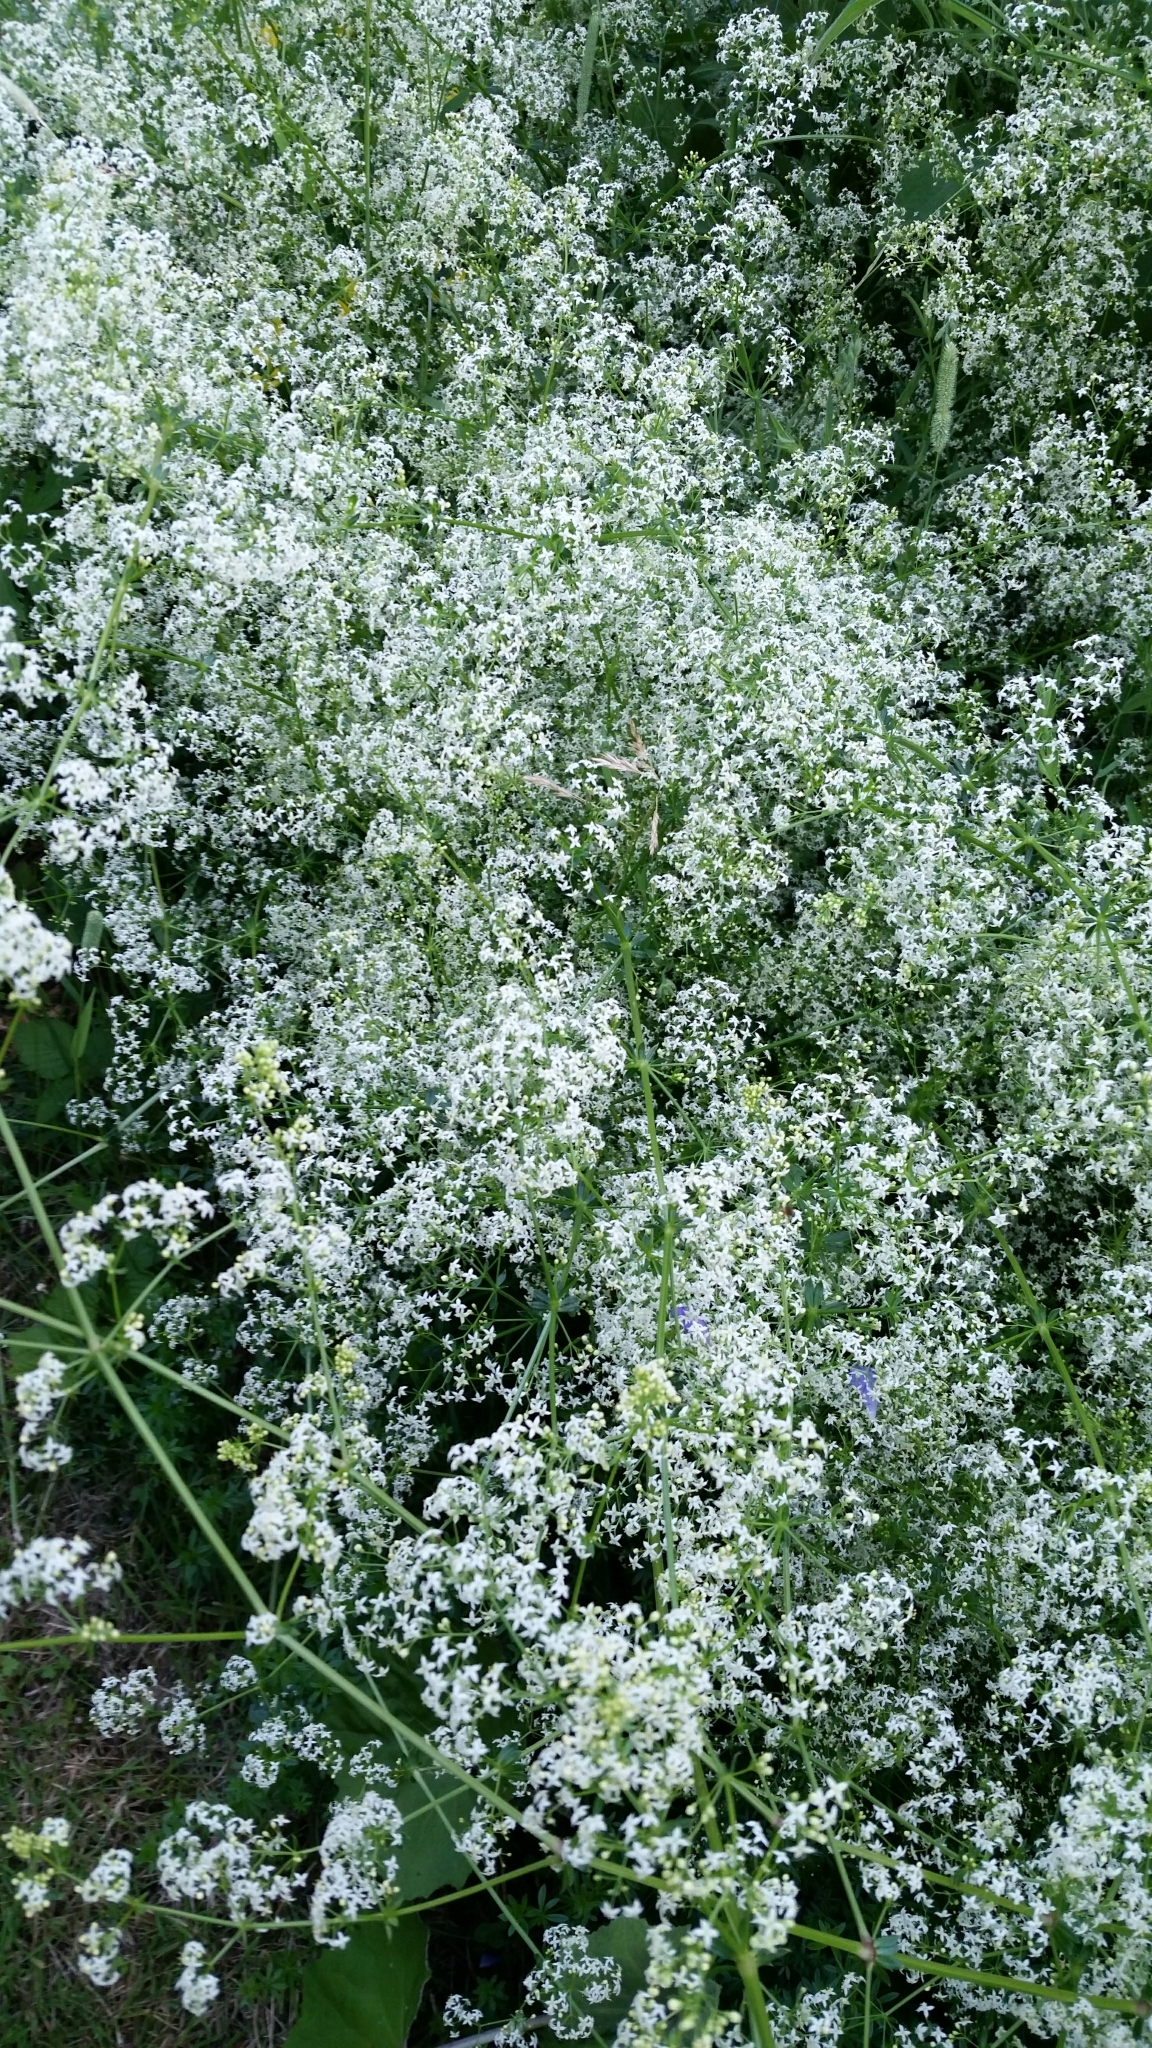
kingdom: Plantae
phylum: Tracheophyta
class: Magnoliopsida
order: Gentianales
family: Rubiaceae
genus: Galium
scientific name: Galium mollugo
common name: Hedge bedstraw
